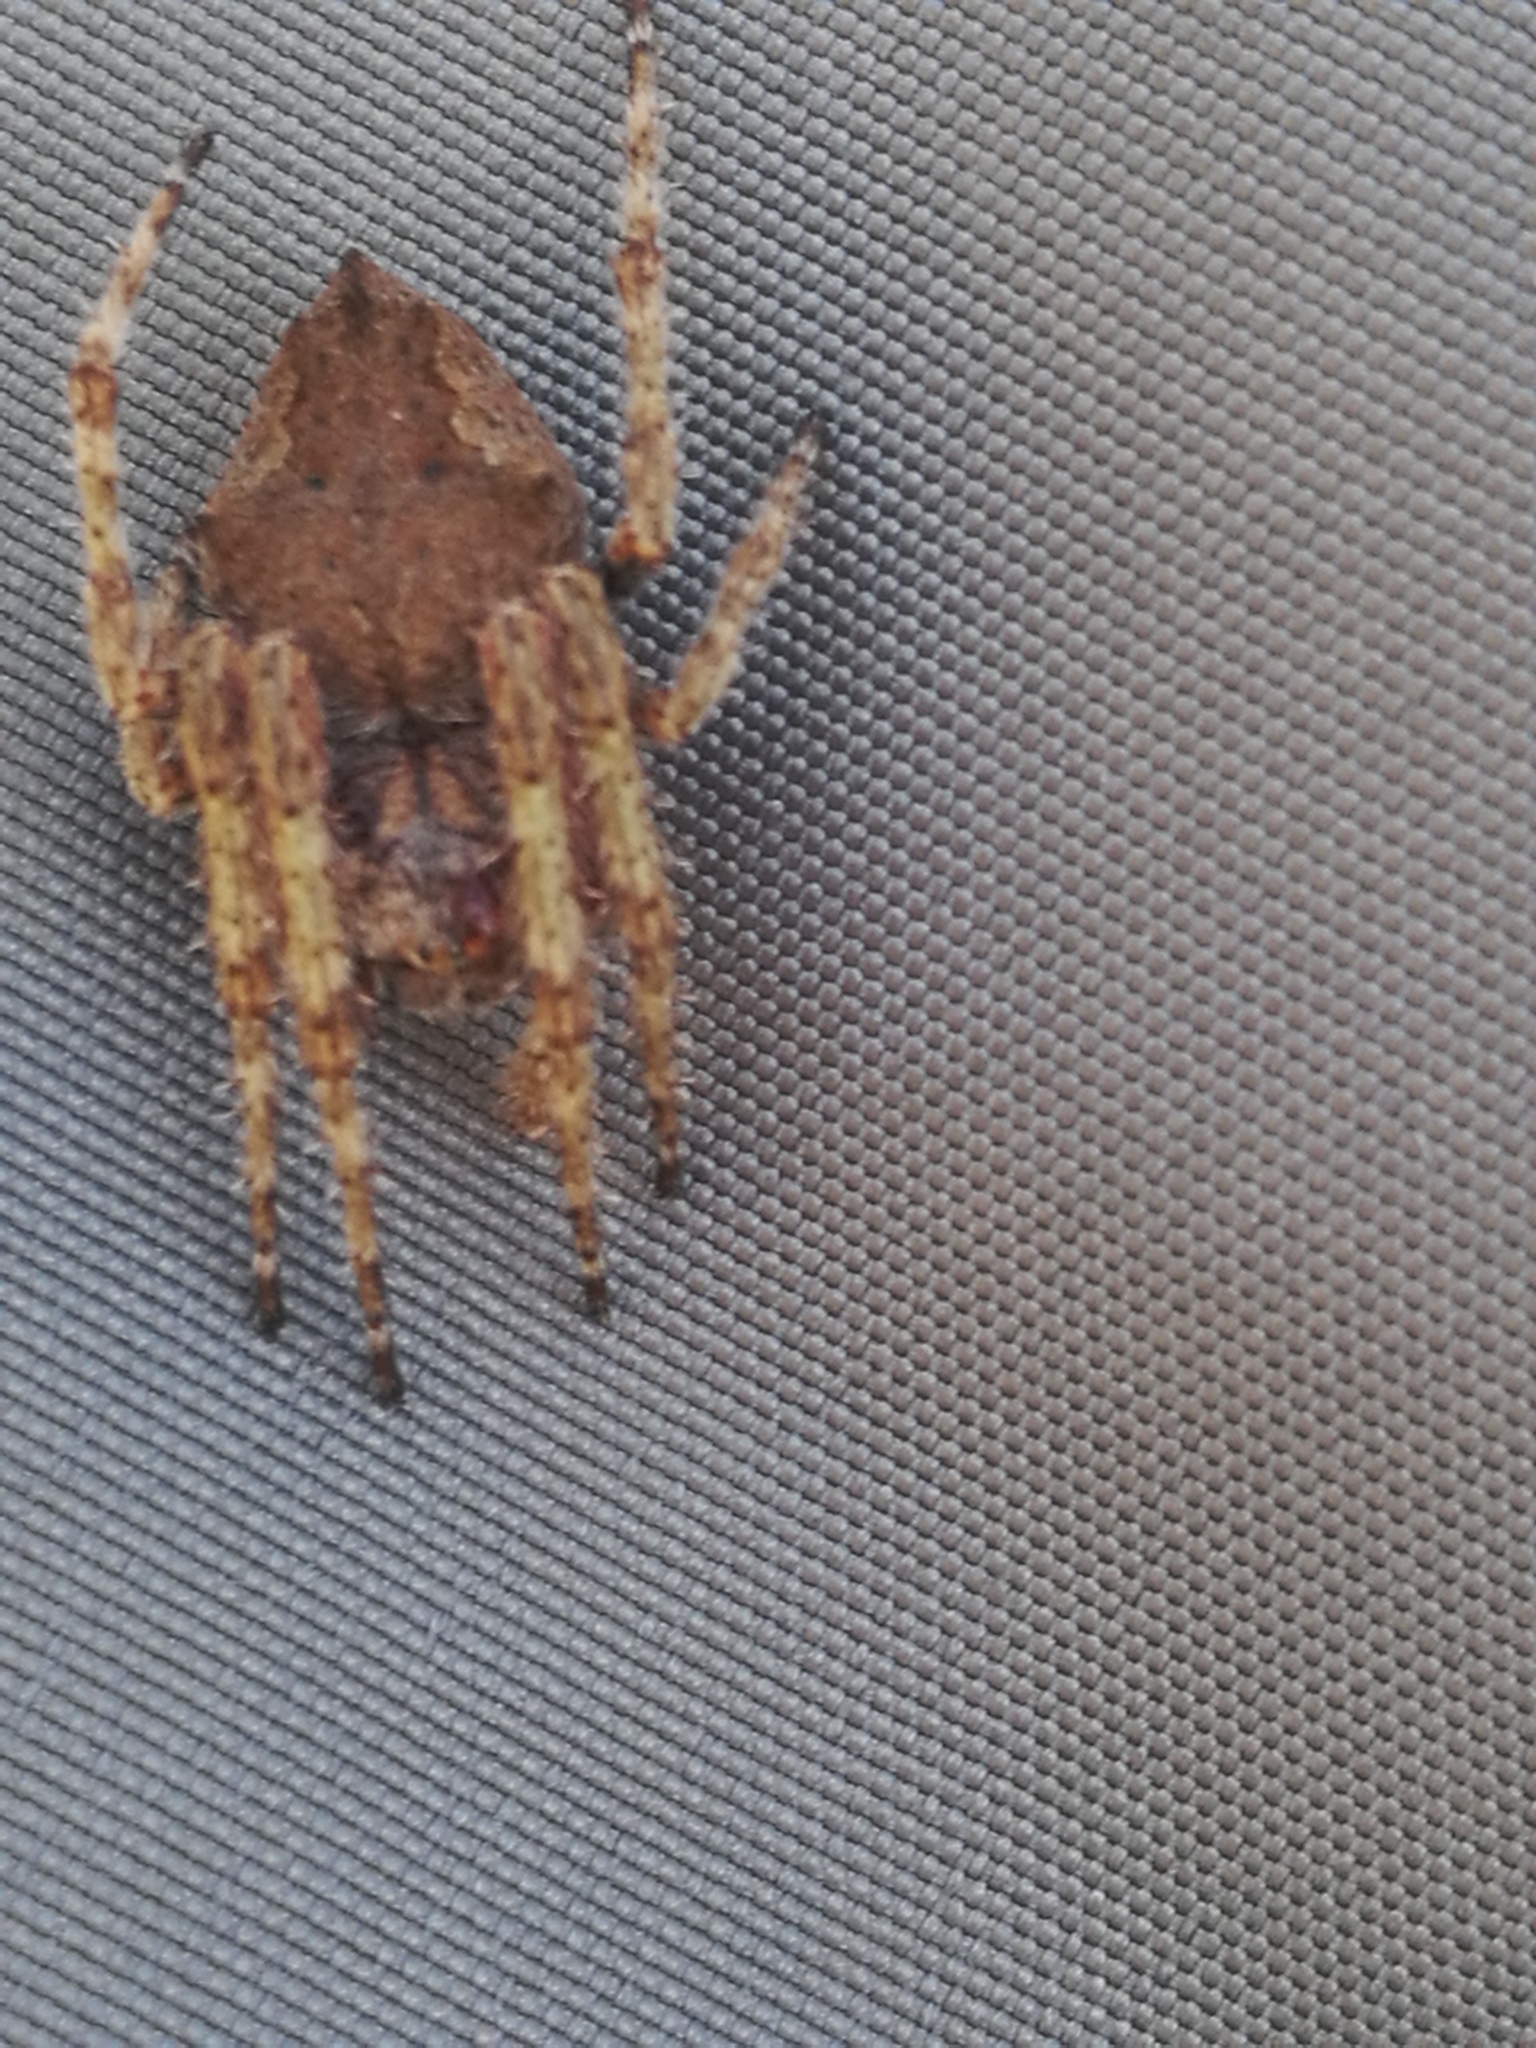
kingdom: Animalia
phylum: Arthropoda
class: Arachnida
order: Araneae
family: Araneidae
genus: Eriophora
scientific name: Eriophora pustulosa
